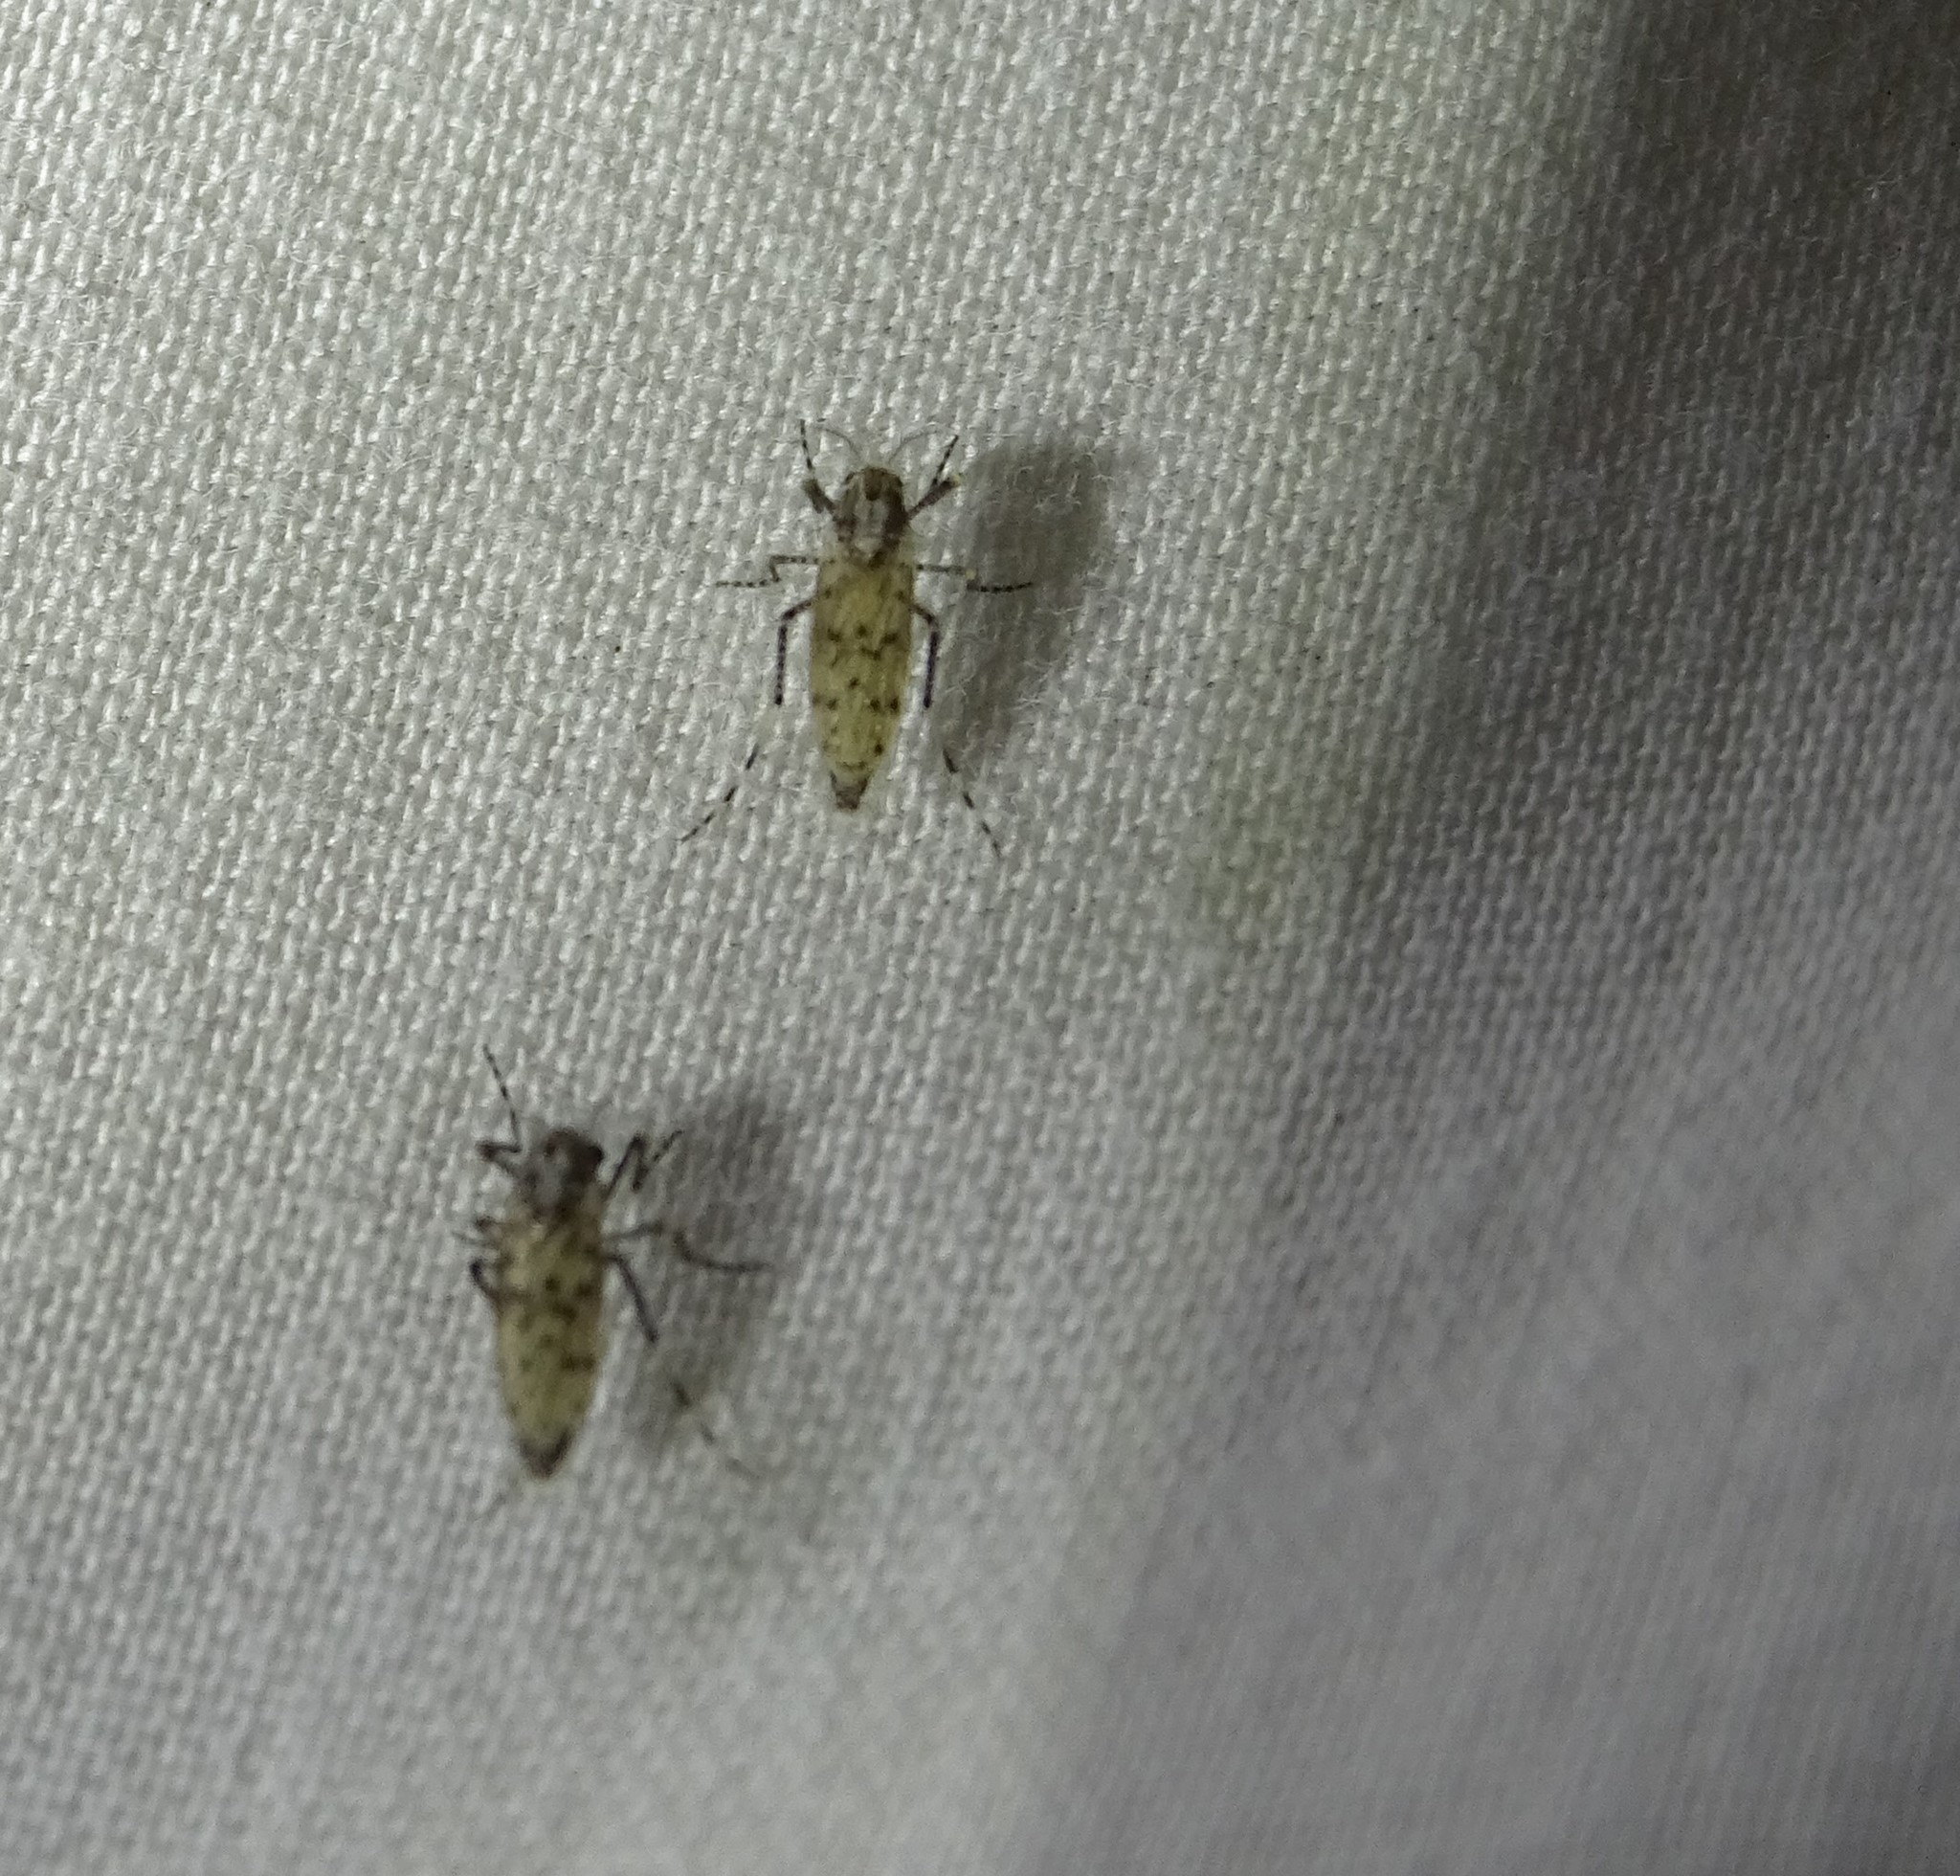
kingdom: Animalia
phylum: Arthropoda
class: Insecta
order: Diptera
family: Chaoboridae
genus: Chaoborus
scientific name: Chaoborus punctipennis
